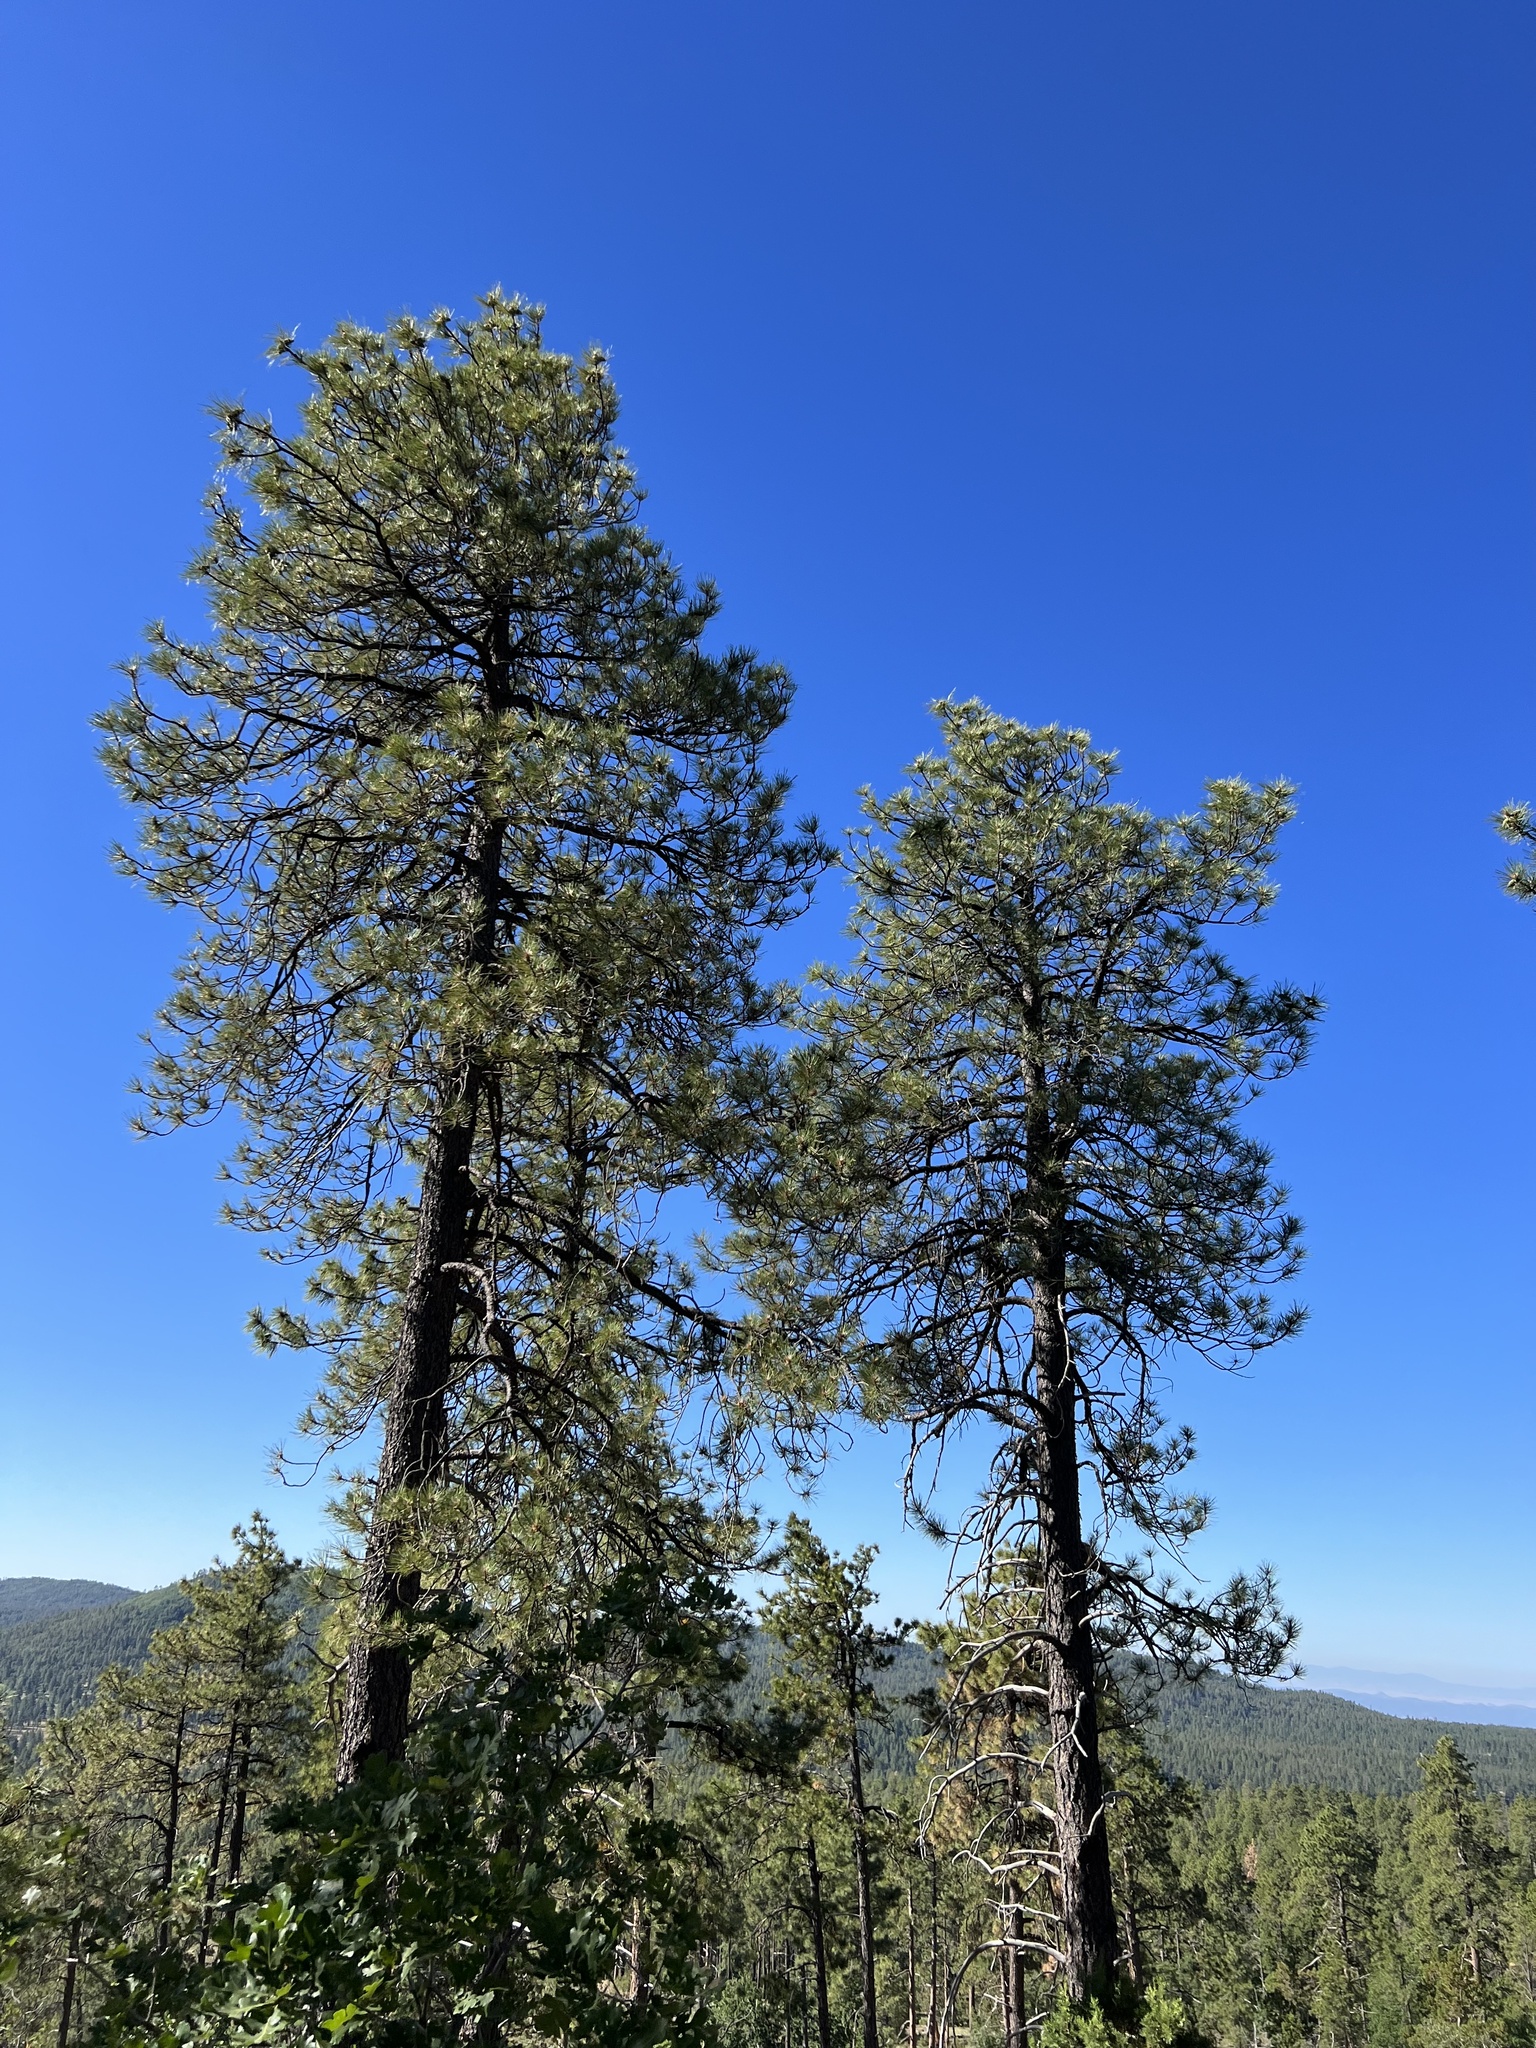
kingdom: Plantae
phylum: Tracheophyta
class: Pinopsida
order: Pinales
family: Pinaceae
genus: Pinus
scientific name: Pinus ponderosa
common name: Western yellow-pine
